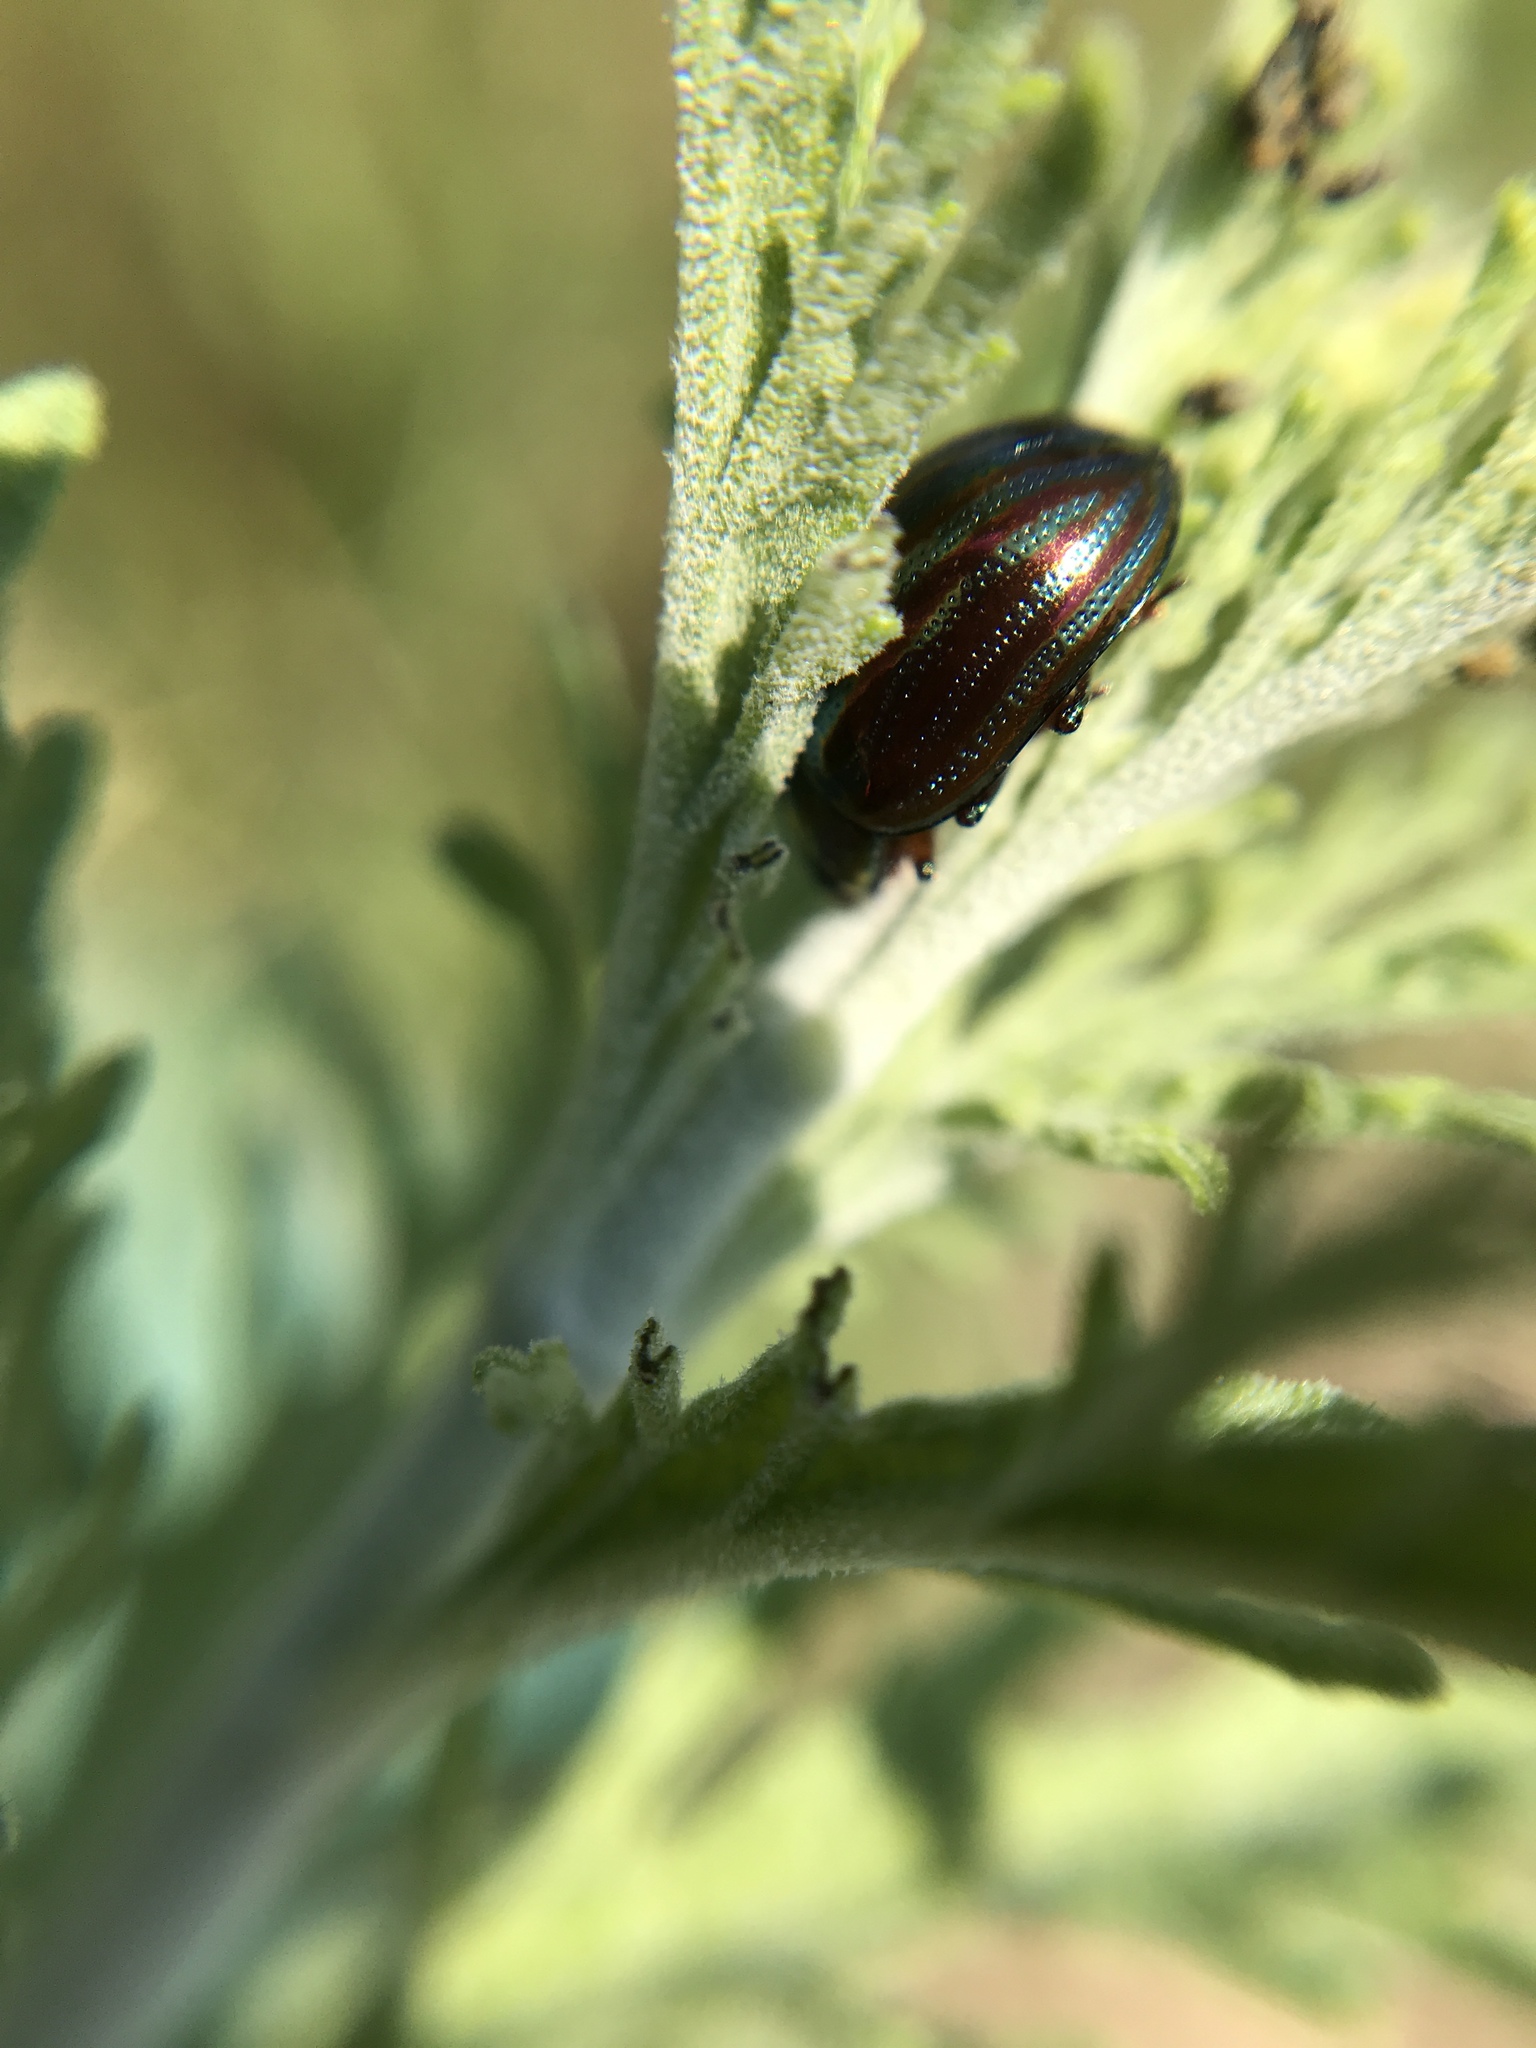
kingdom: Animalia
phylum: Arthropoda
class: Insecta
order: Coleoptera
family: Chrysomelidae
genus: Chrysolina
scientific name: Chrysolina americana
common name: Rosemary beetle
